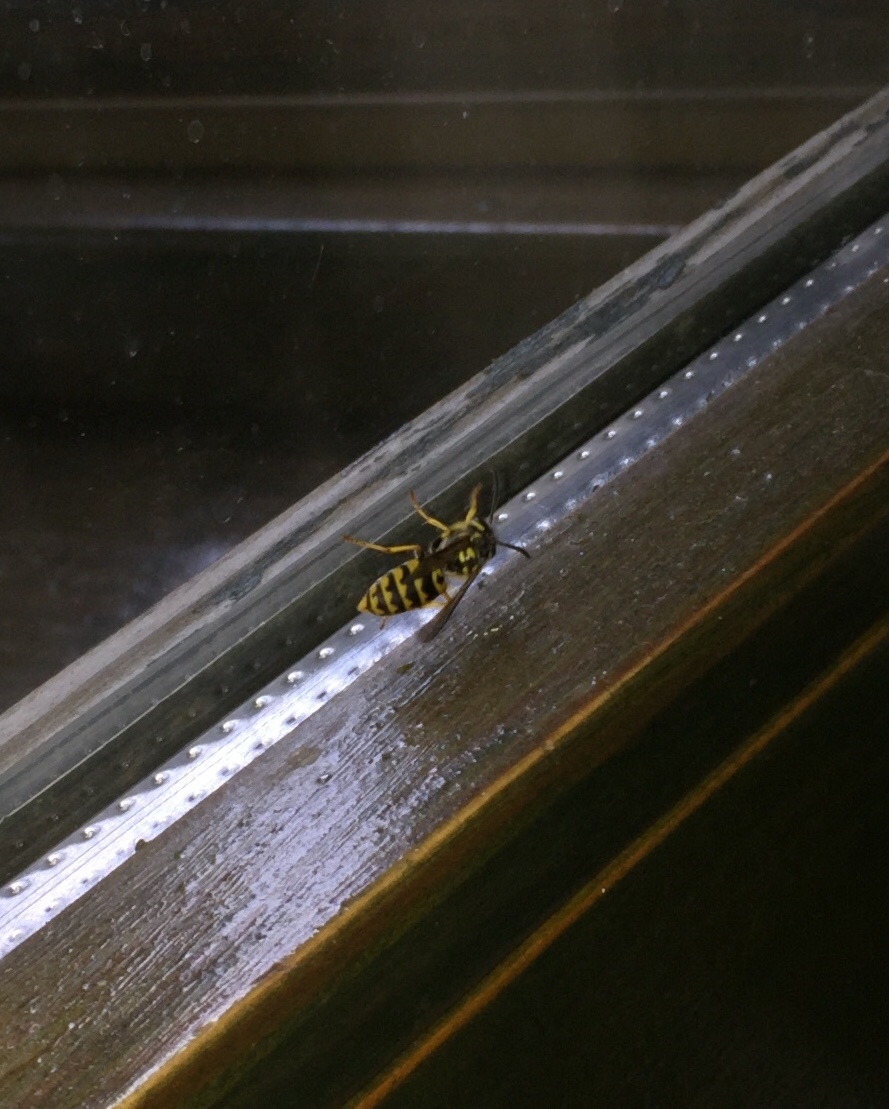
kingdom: Animalia
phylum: Arthropoda
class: Insecta
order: Hymenoptera
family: Vespidae
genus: Vespula
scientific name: Vespula vulgaris
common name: Common wasp
